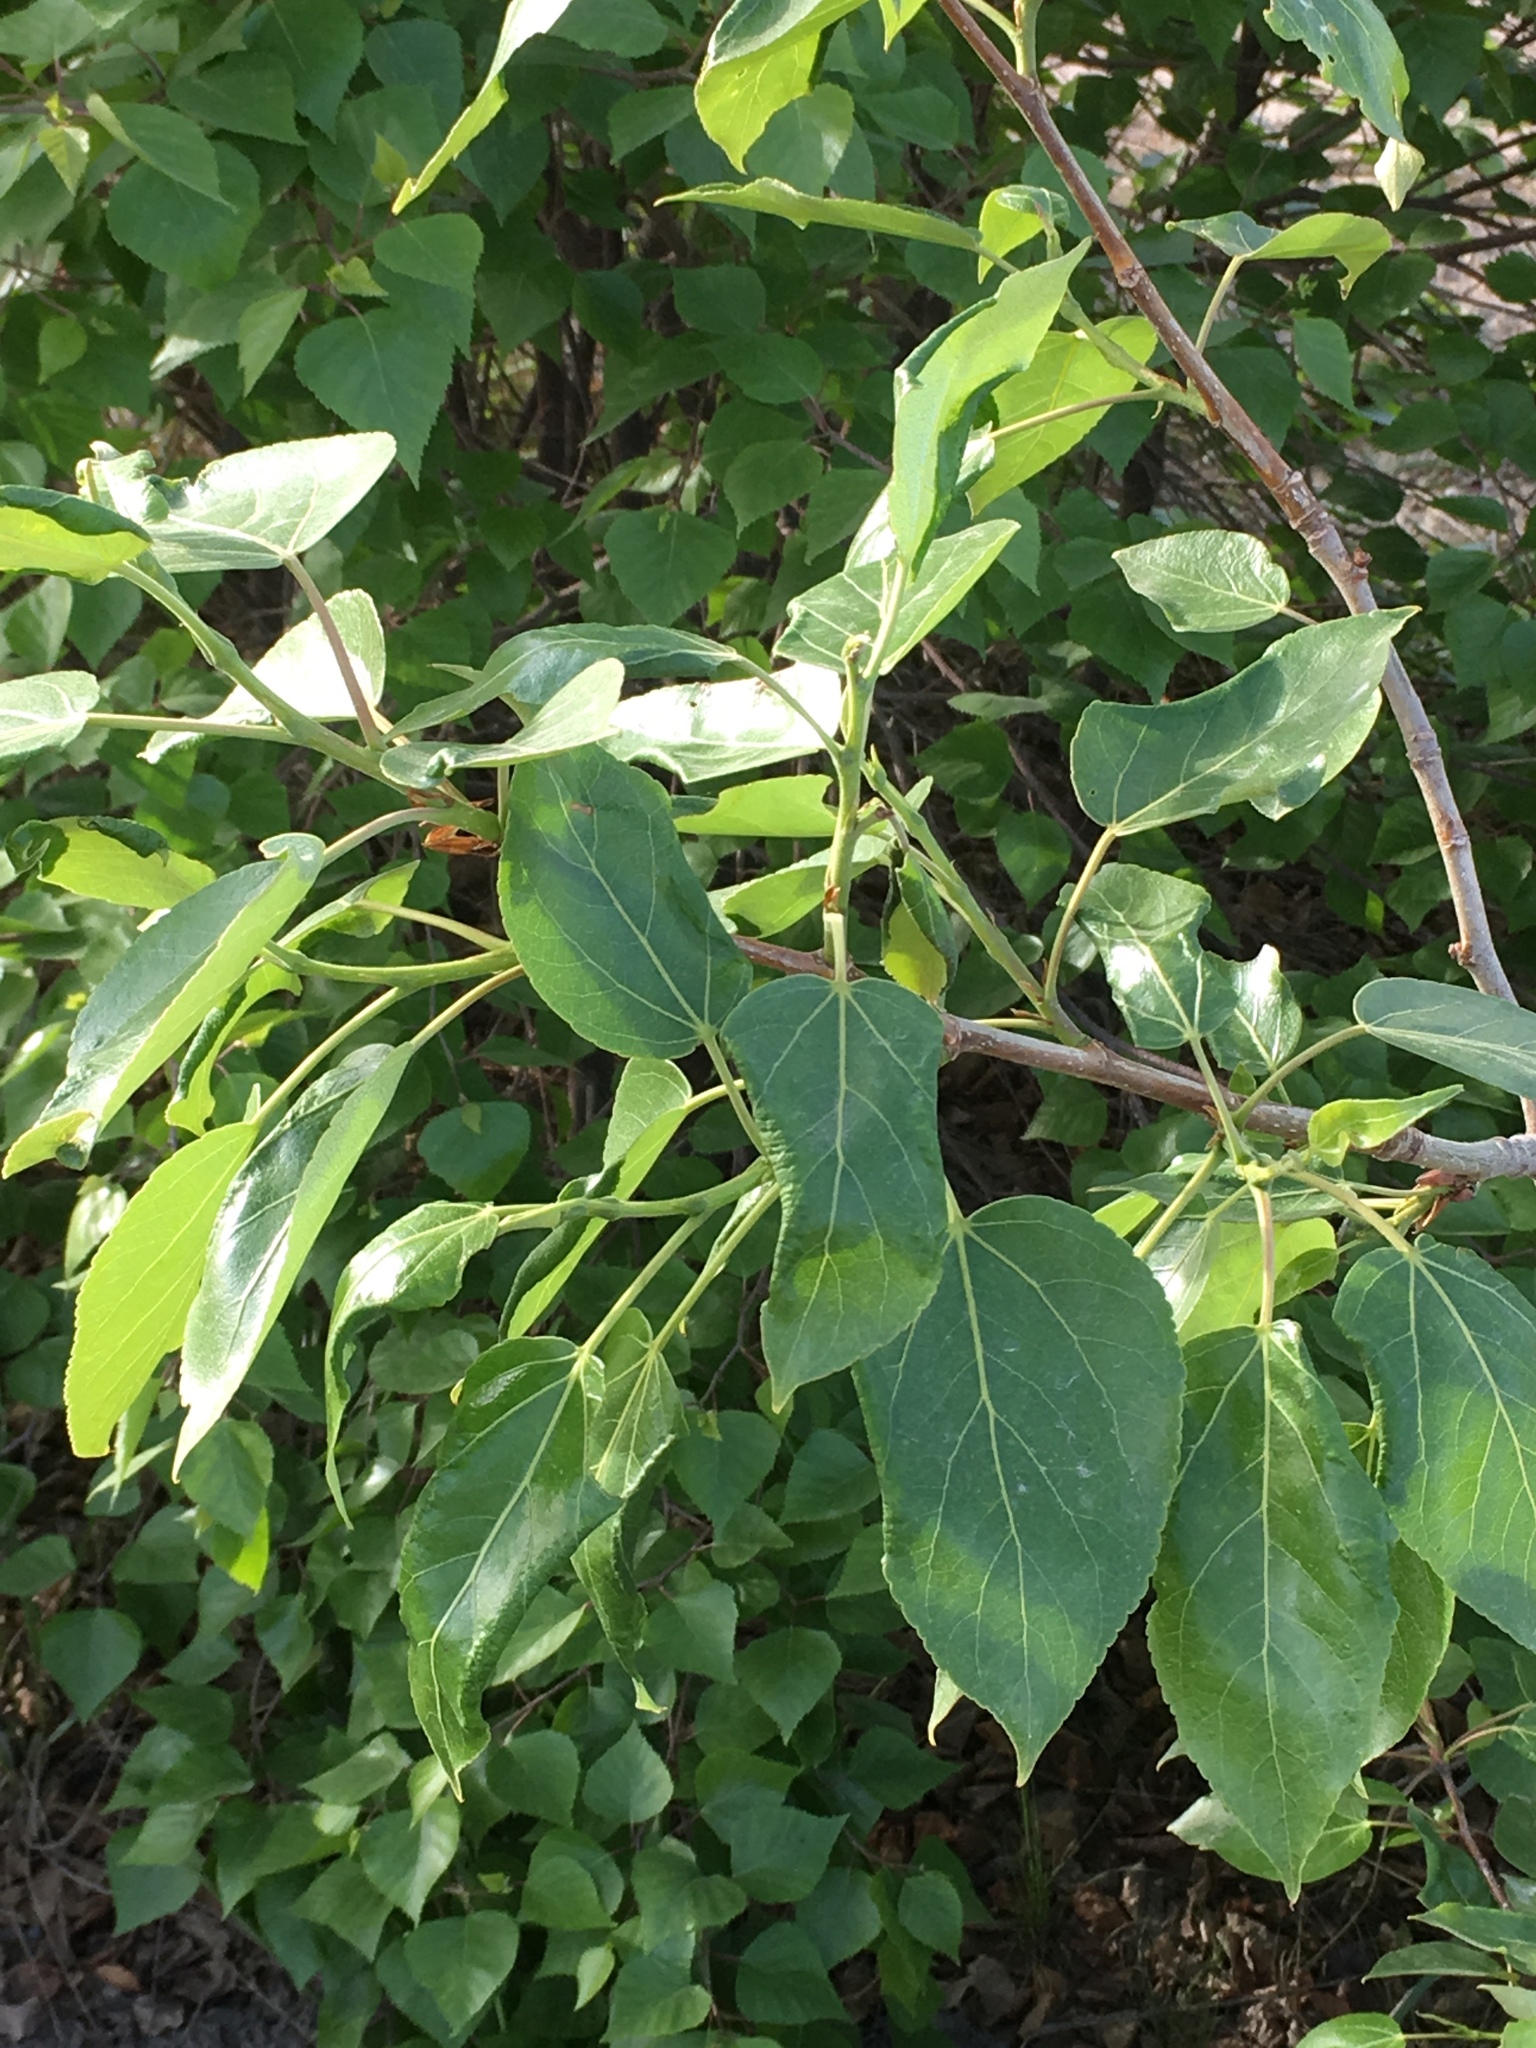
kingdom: Plantae
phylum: Tracheophyta
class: Magnoliopsida
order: Malpighiales
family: Salicaceae
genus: Populus
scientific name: Populus balsamifera
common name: Balsam poplar
